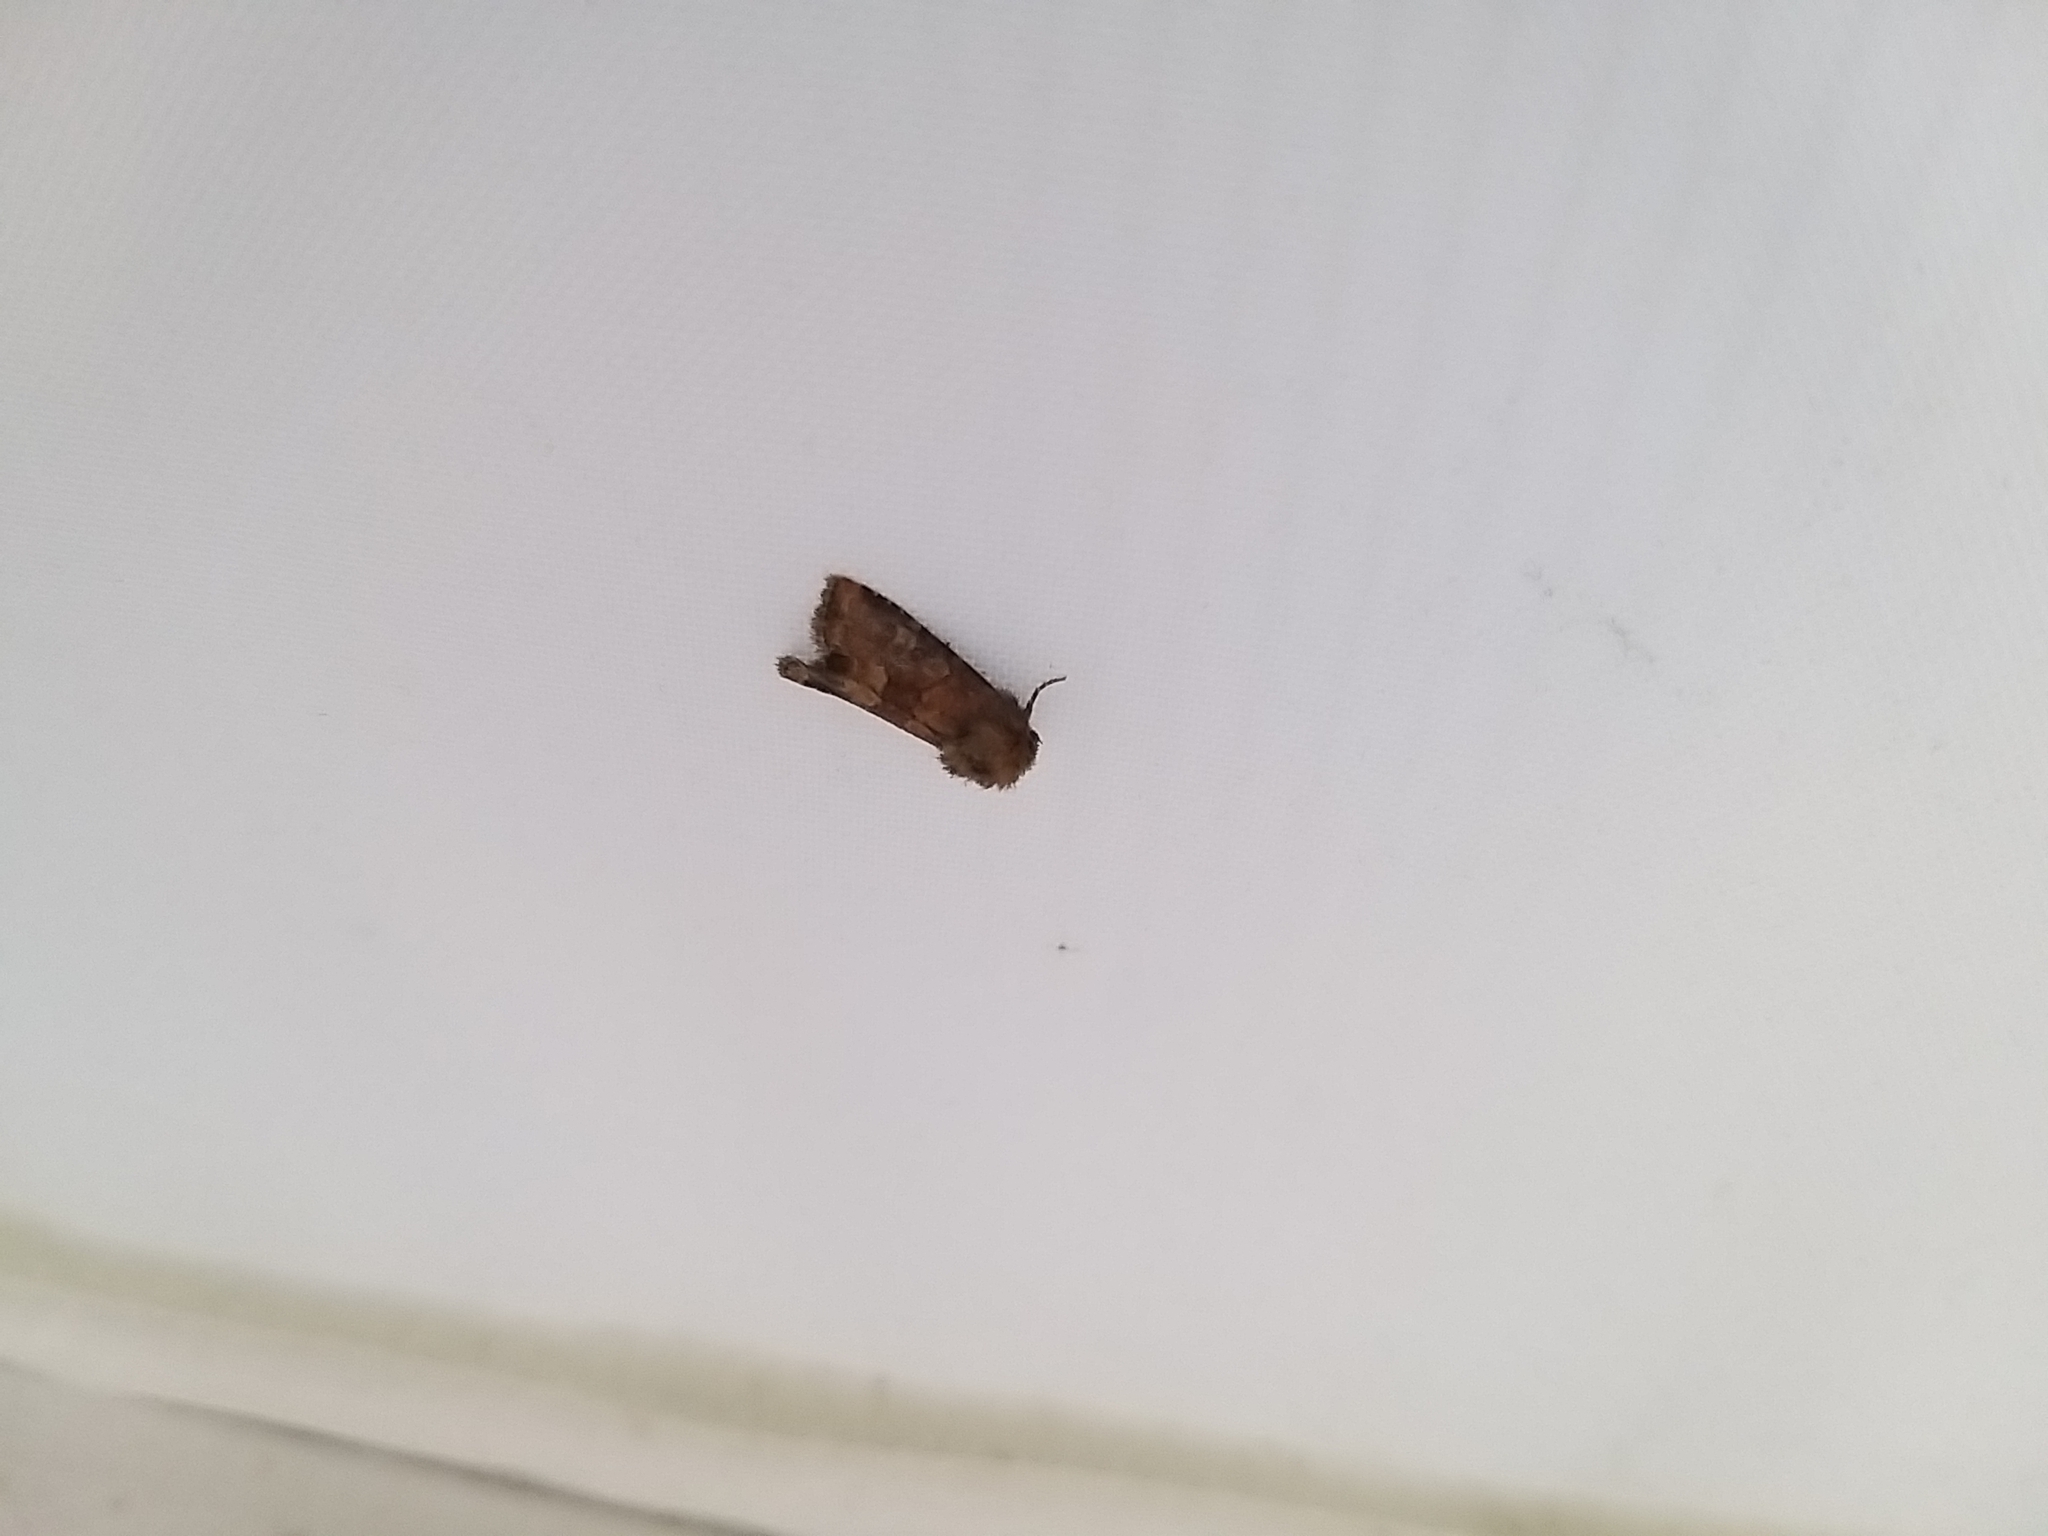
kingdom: Animalia
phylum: Arthropoda
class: Insecta
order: Lepidoptera
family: Noctuidae
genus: Oligia
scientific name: Oligia fasciuncula
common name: Middle-barred minor
